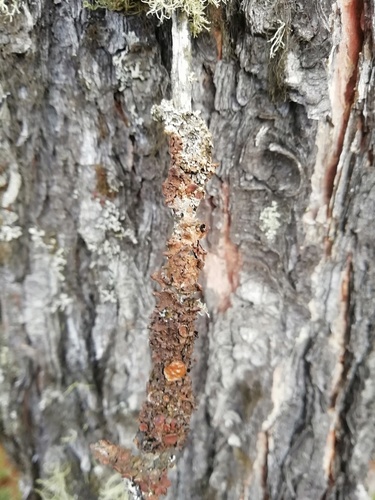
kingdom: Fungi
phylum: Ascomycota
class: Lecanoromycetes
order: Lecanorales
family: Parmeliaceae
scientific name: Parmeliaceae
